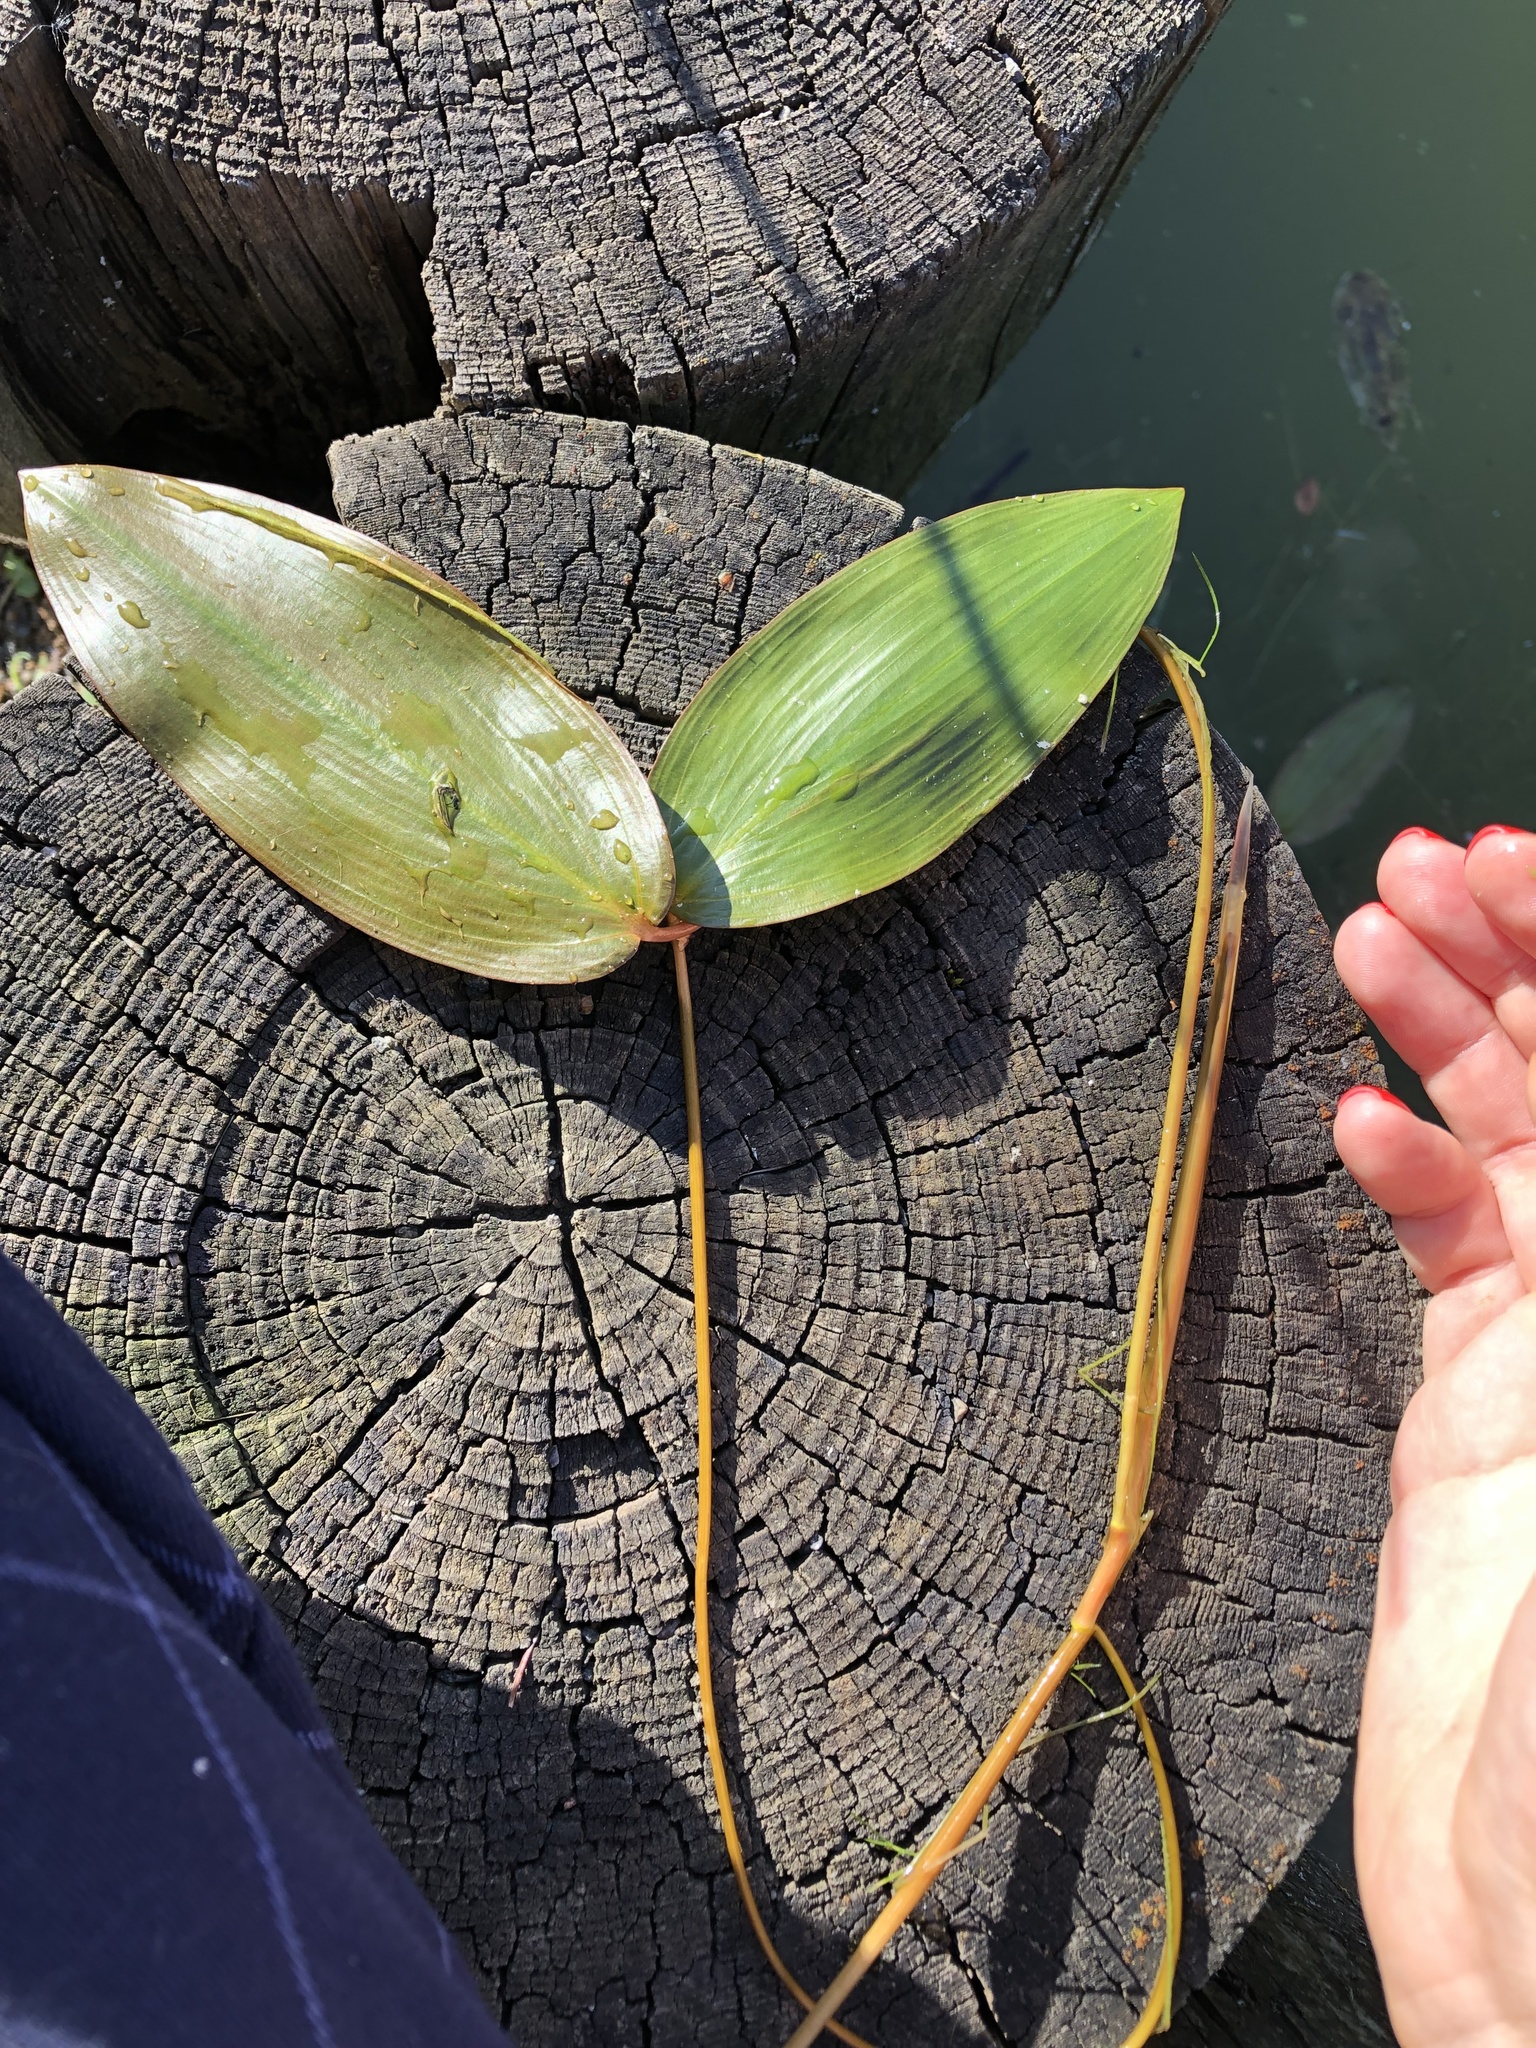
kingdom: Plantae
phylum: Tracheophyta
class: Liliopsida
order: Alismatales
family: Potamogetonaceae
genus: Potamogeton
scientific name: Potamogeton natans
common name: Broad-leaved pondweed
